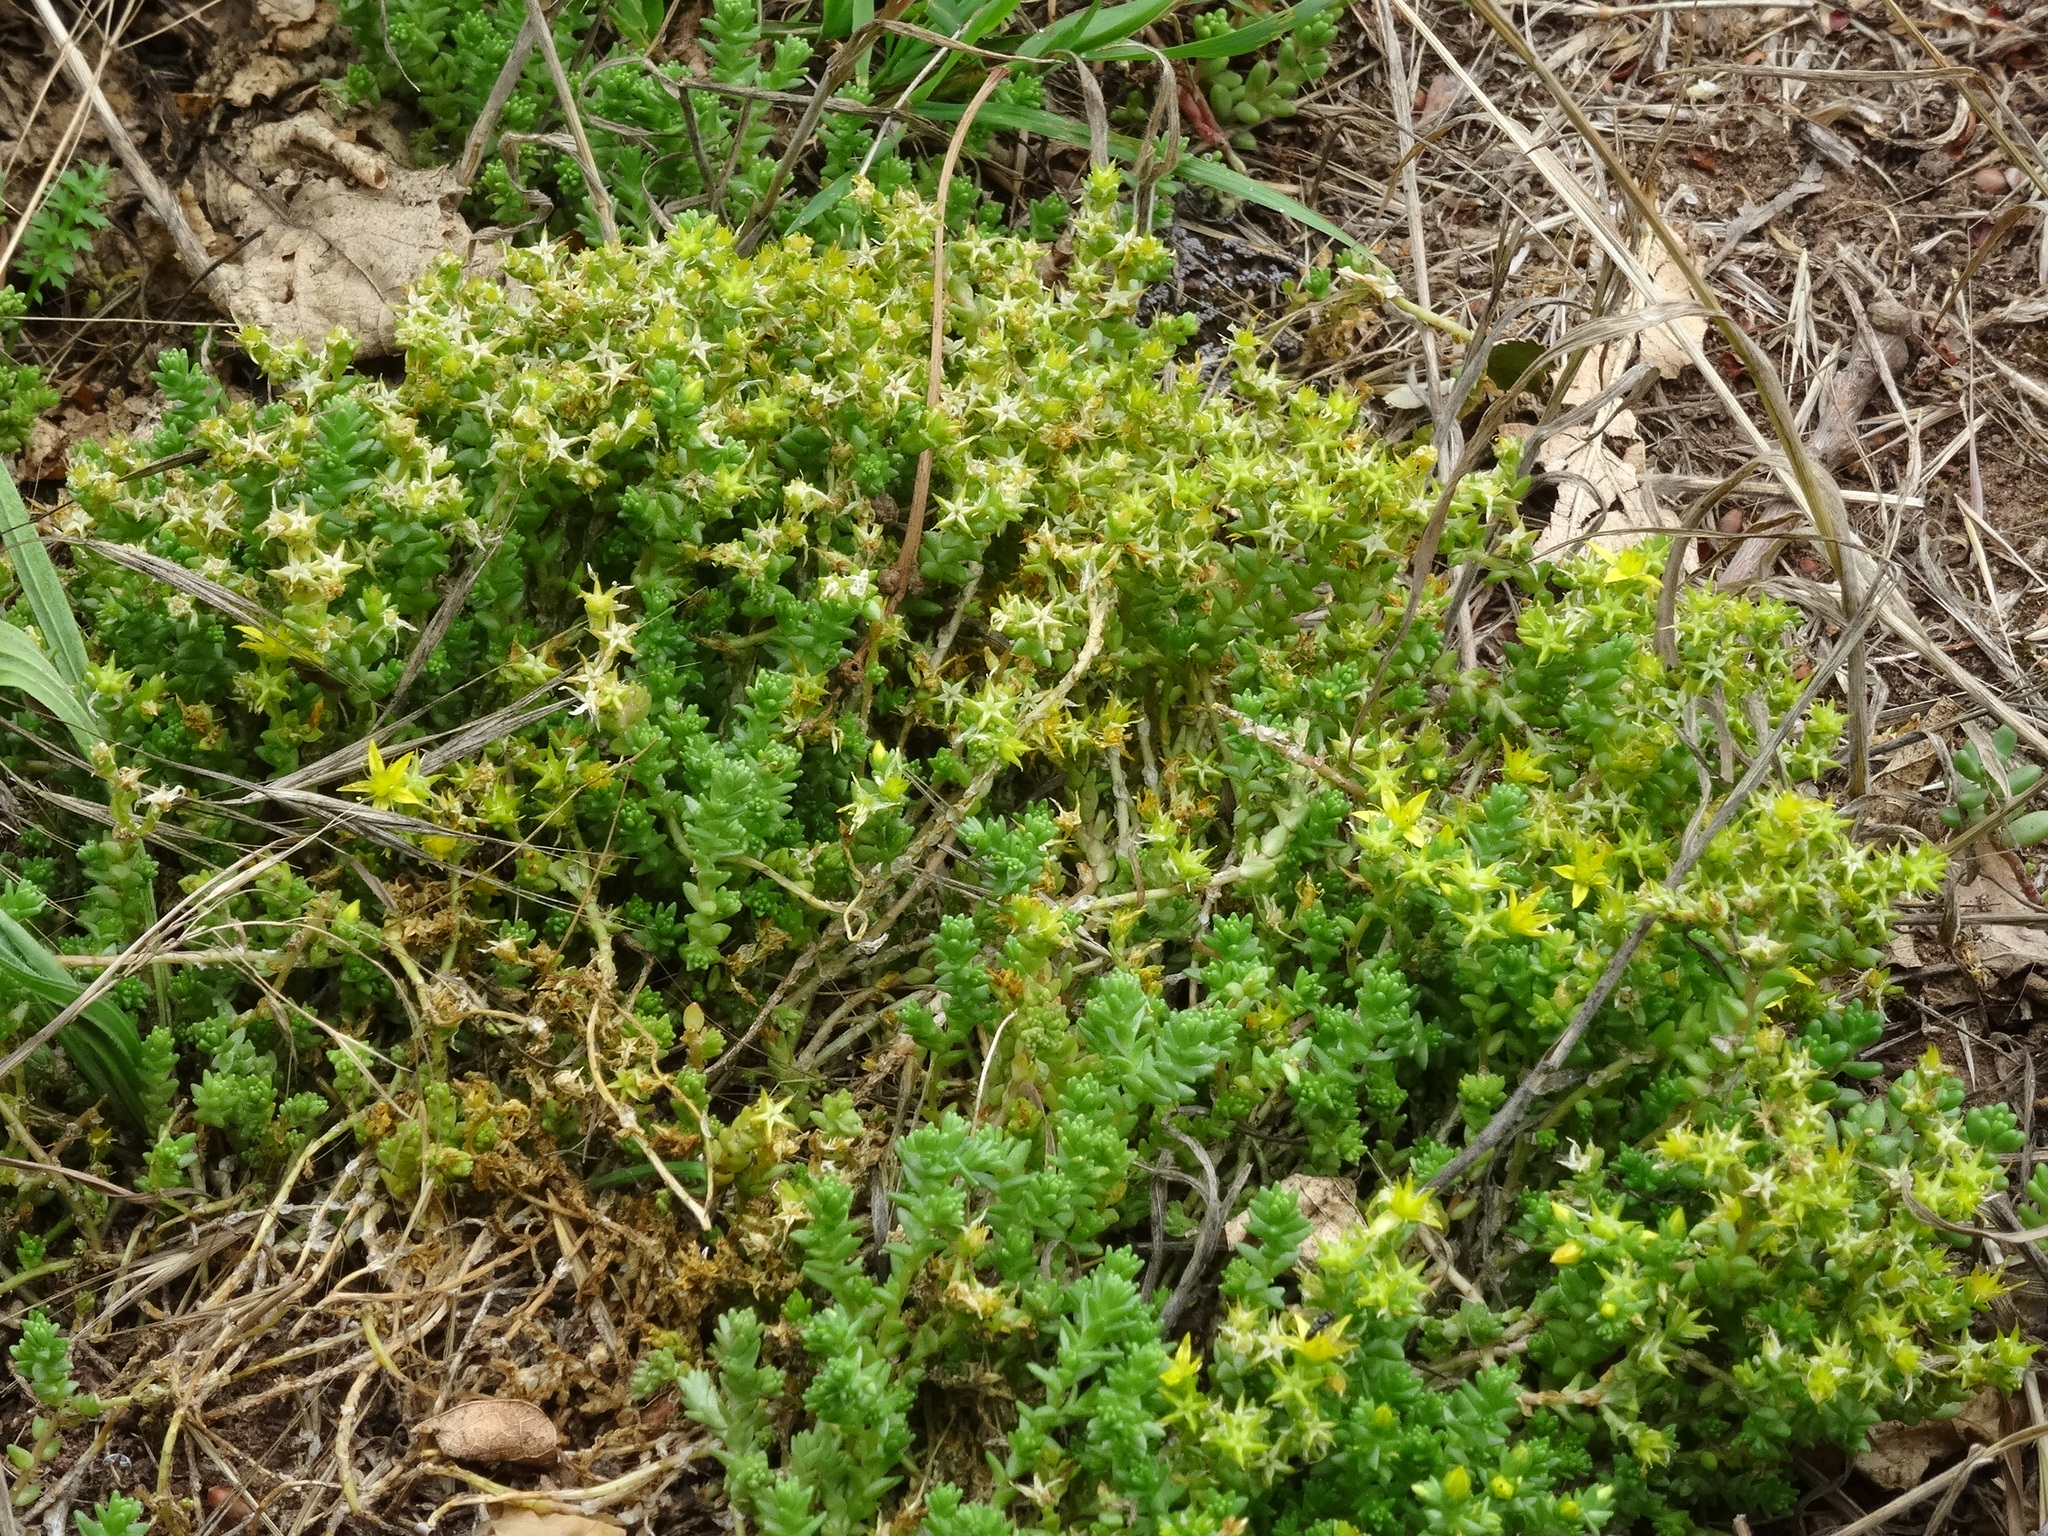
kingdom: Plantae
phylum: Tracheophyta
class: Magnoliopsida
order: Saxifragales
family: Crassulaceae
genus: Sedum
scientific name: Sedum acre
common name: Biting stonecrop
